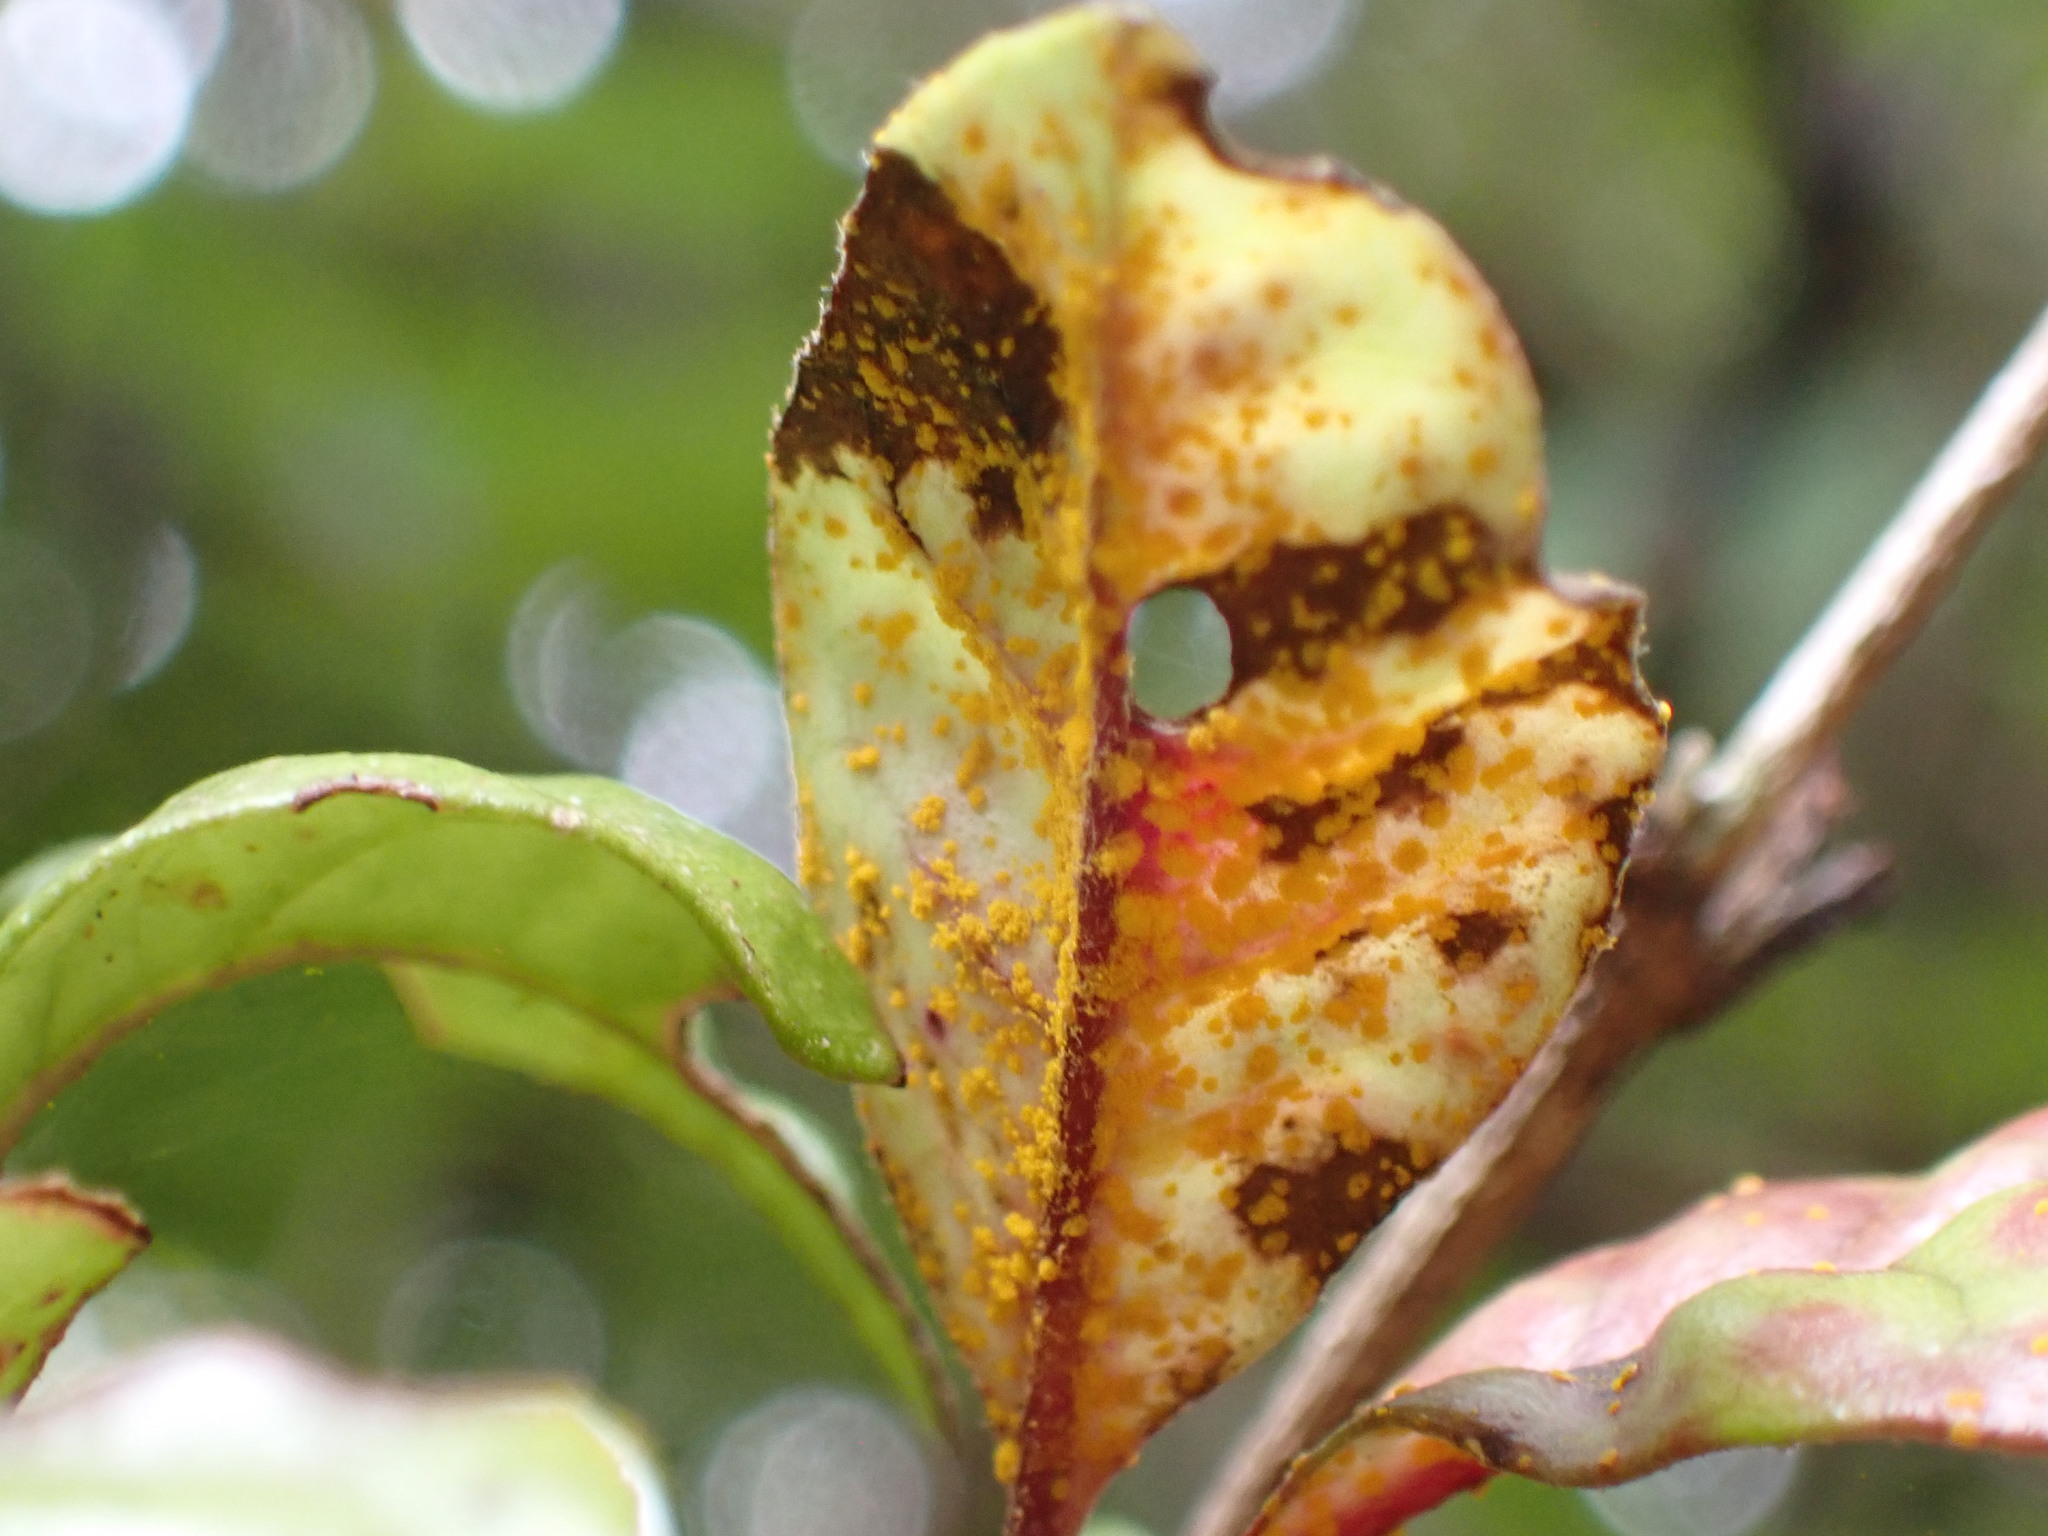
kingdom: Fungi
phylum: Basidiomycota
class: Pucciniomycetes
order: Pucciniales
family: Sphaerophragmiaceae
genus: Austropuccinia
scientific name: Austropuccinia psidii
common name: Myrtle rust
